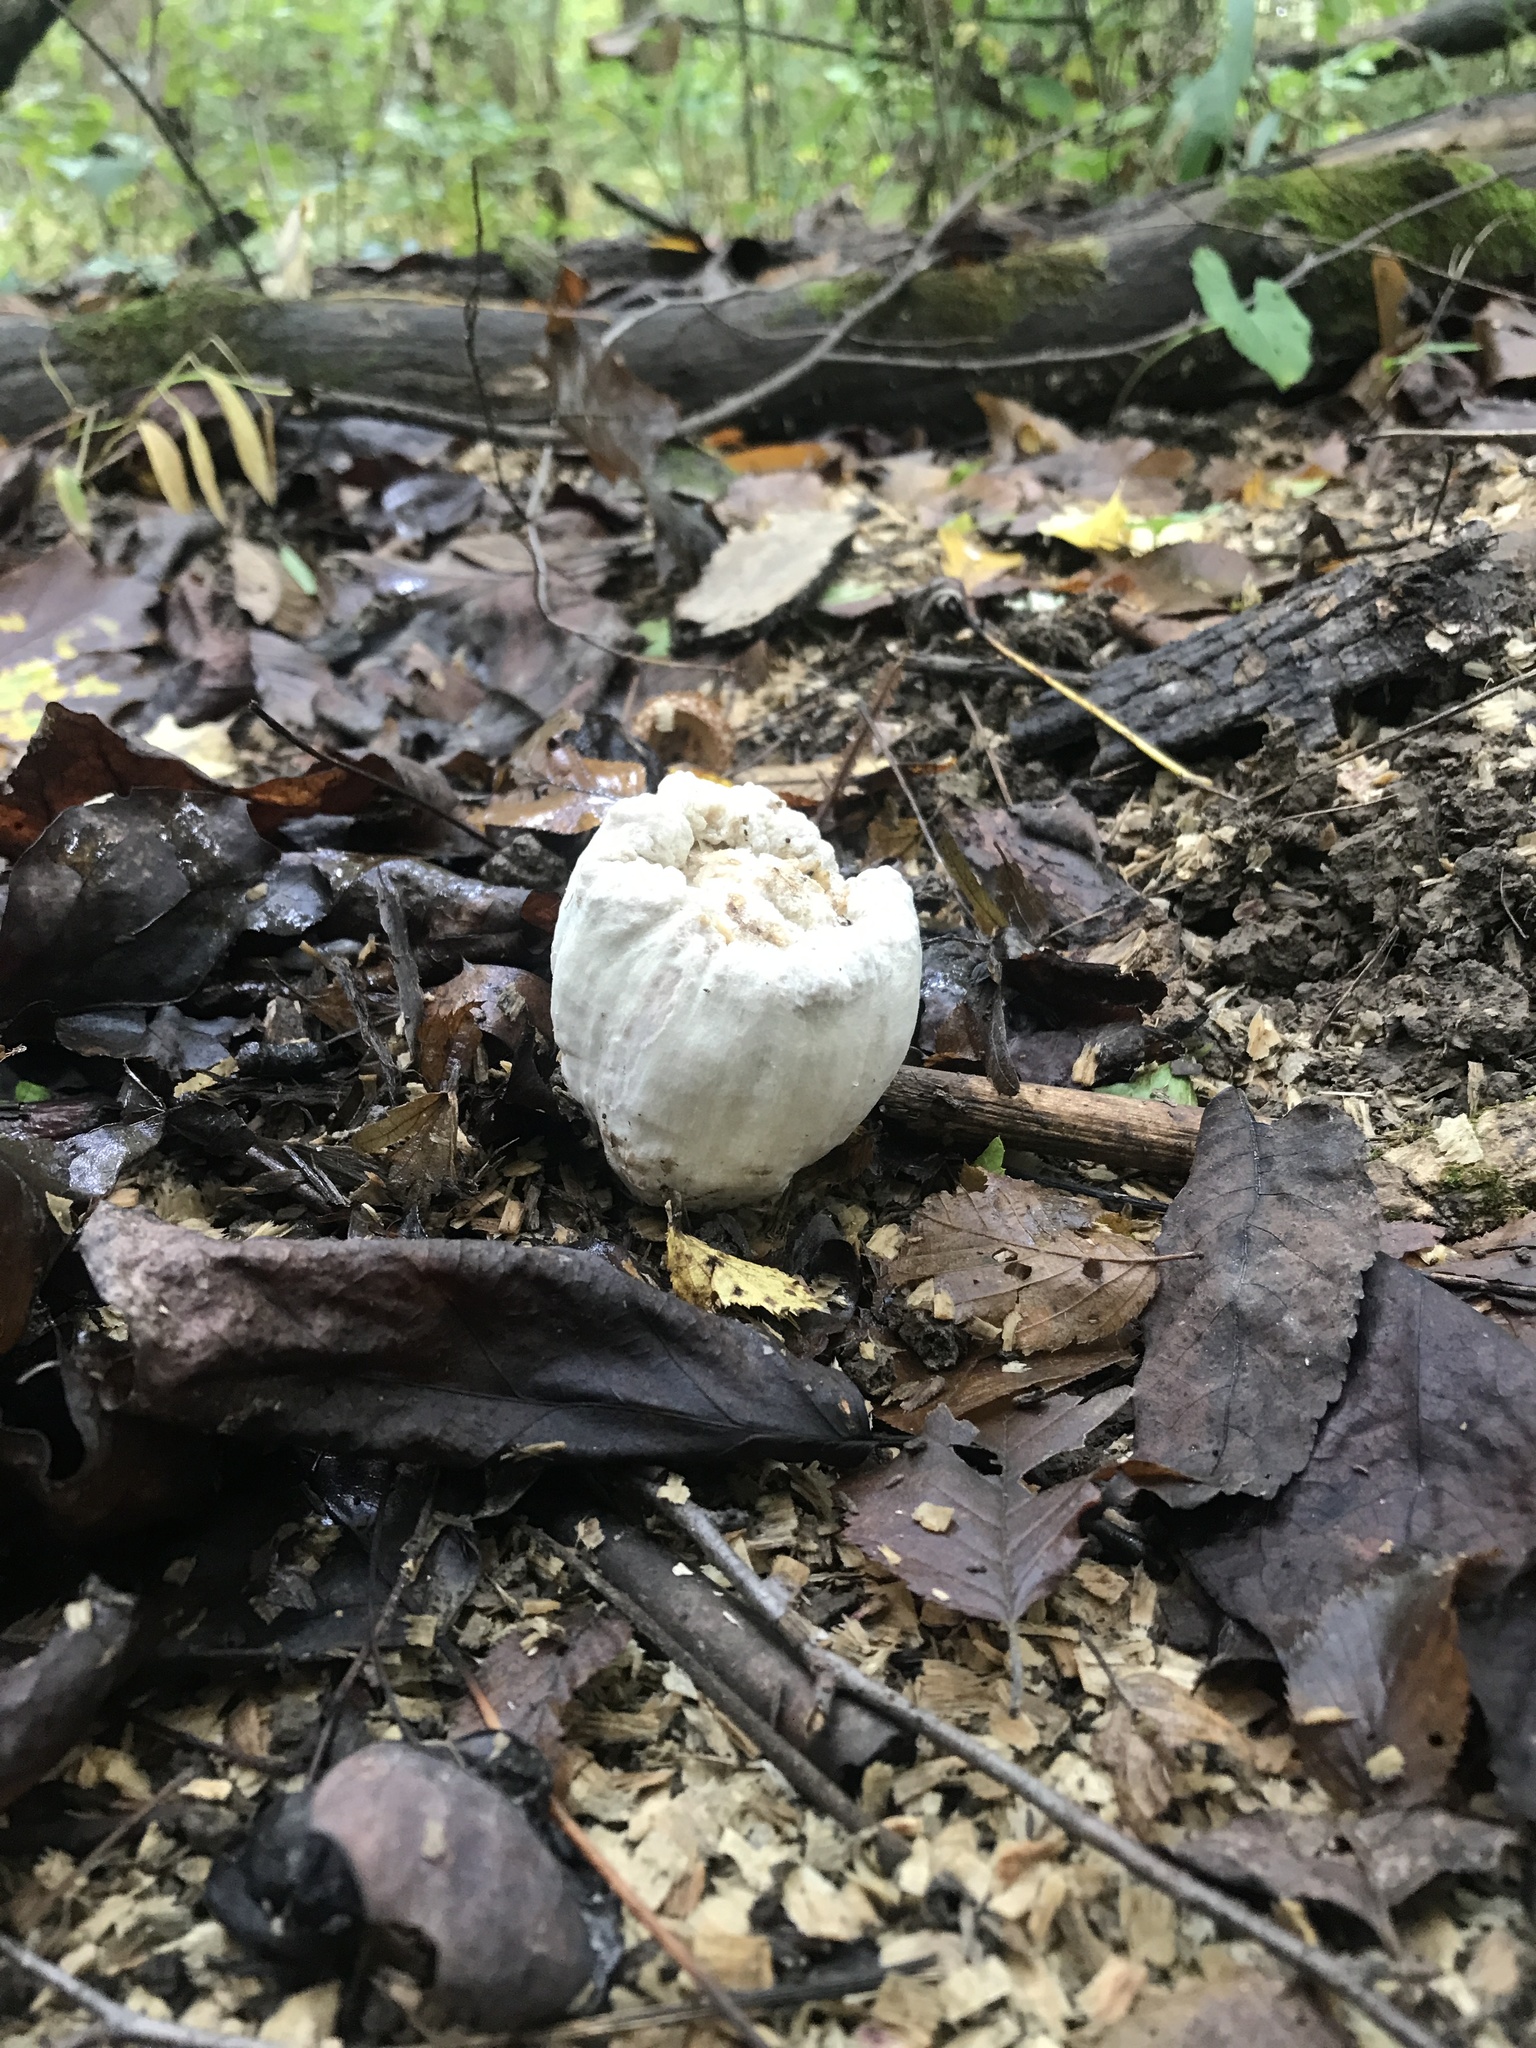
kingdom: Fungi
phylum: Basidiomycota
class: Agaricomycetes
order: Agaricales
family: Entolomataceae
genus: Entoloma
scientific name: Entoloma abortivum
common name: Aborted entoloma
